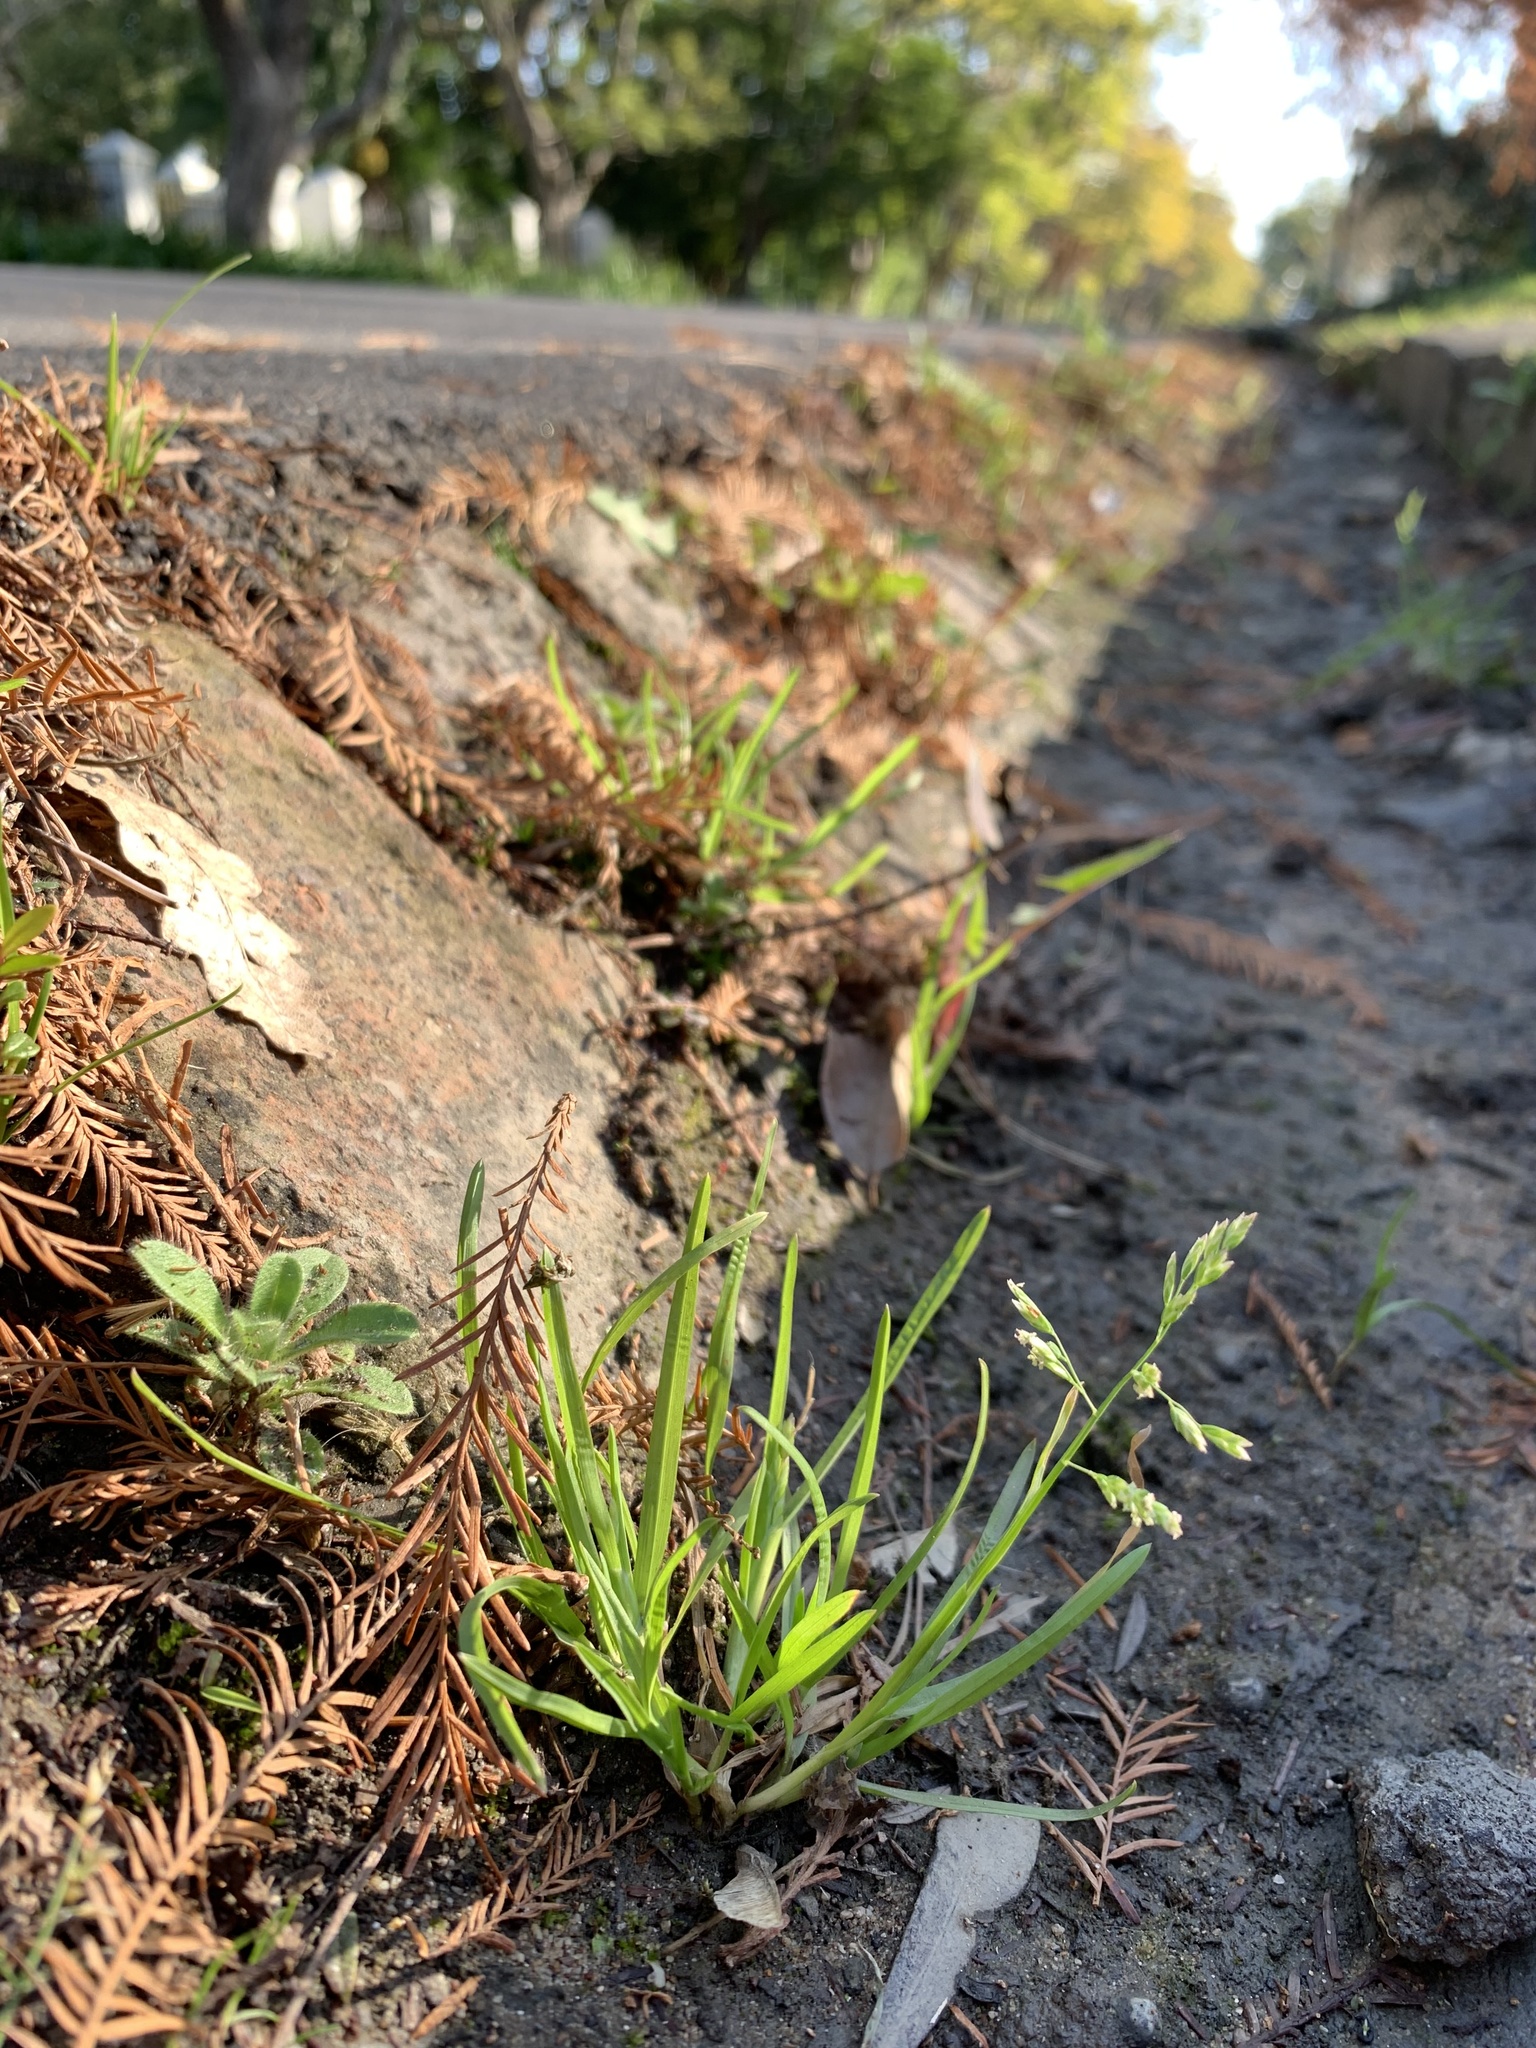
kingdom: Plantae
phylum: Tracheophyta
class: Liliopsida
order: Poales
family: Poaceae
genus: Poa
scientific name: Poa annua
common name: Annual bluegrass
